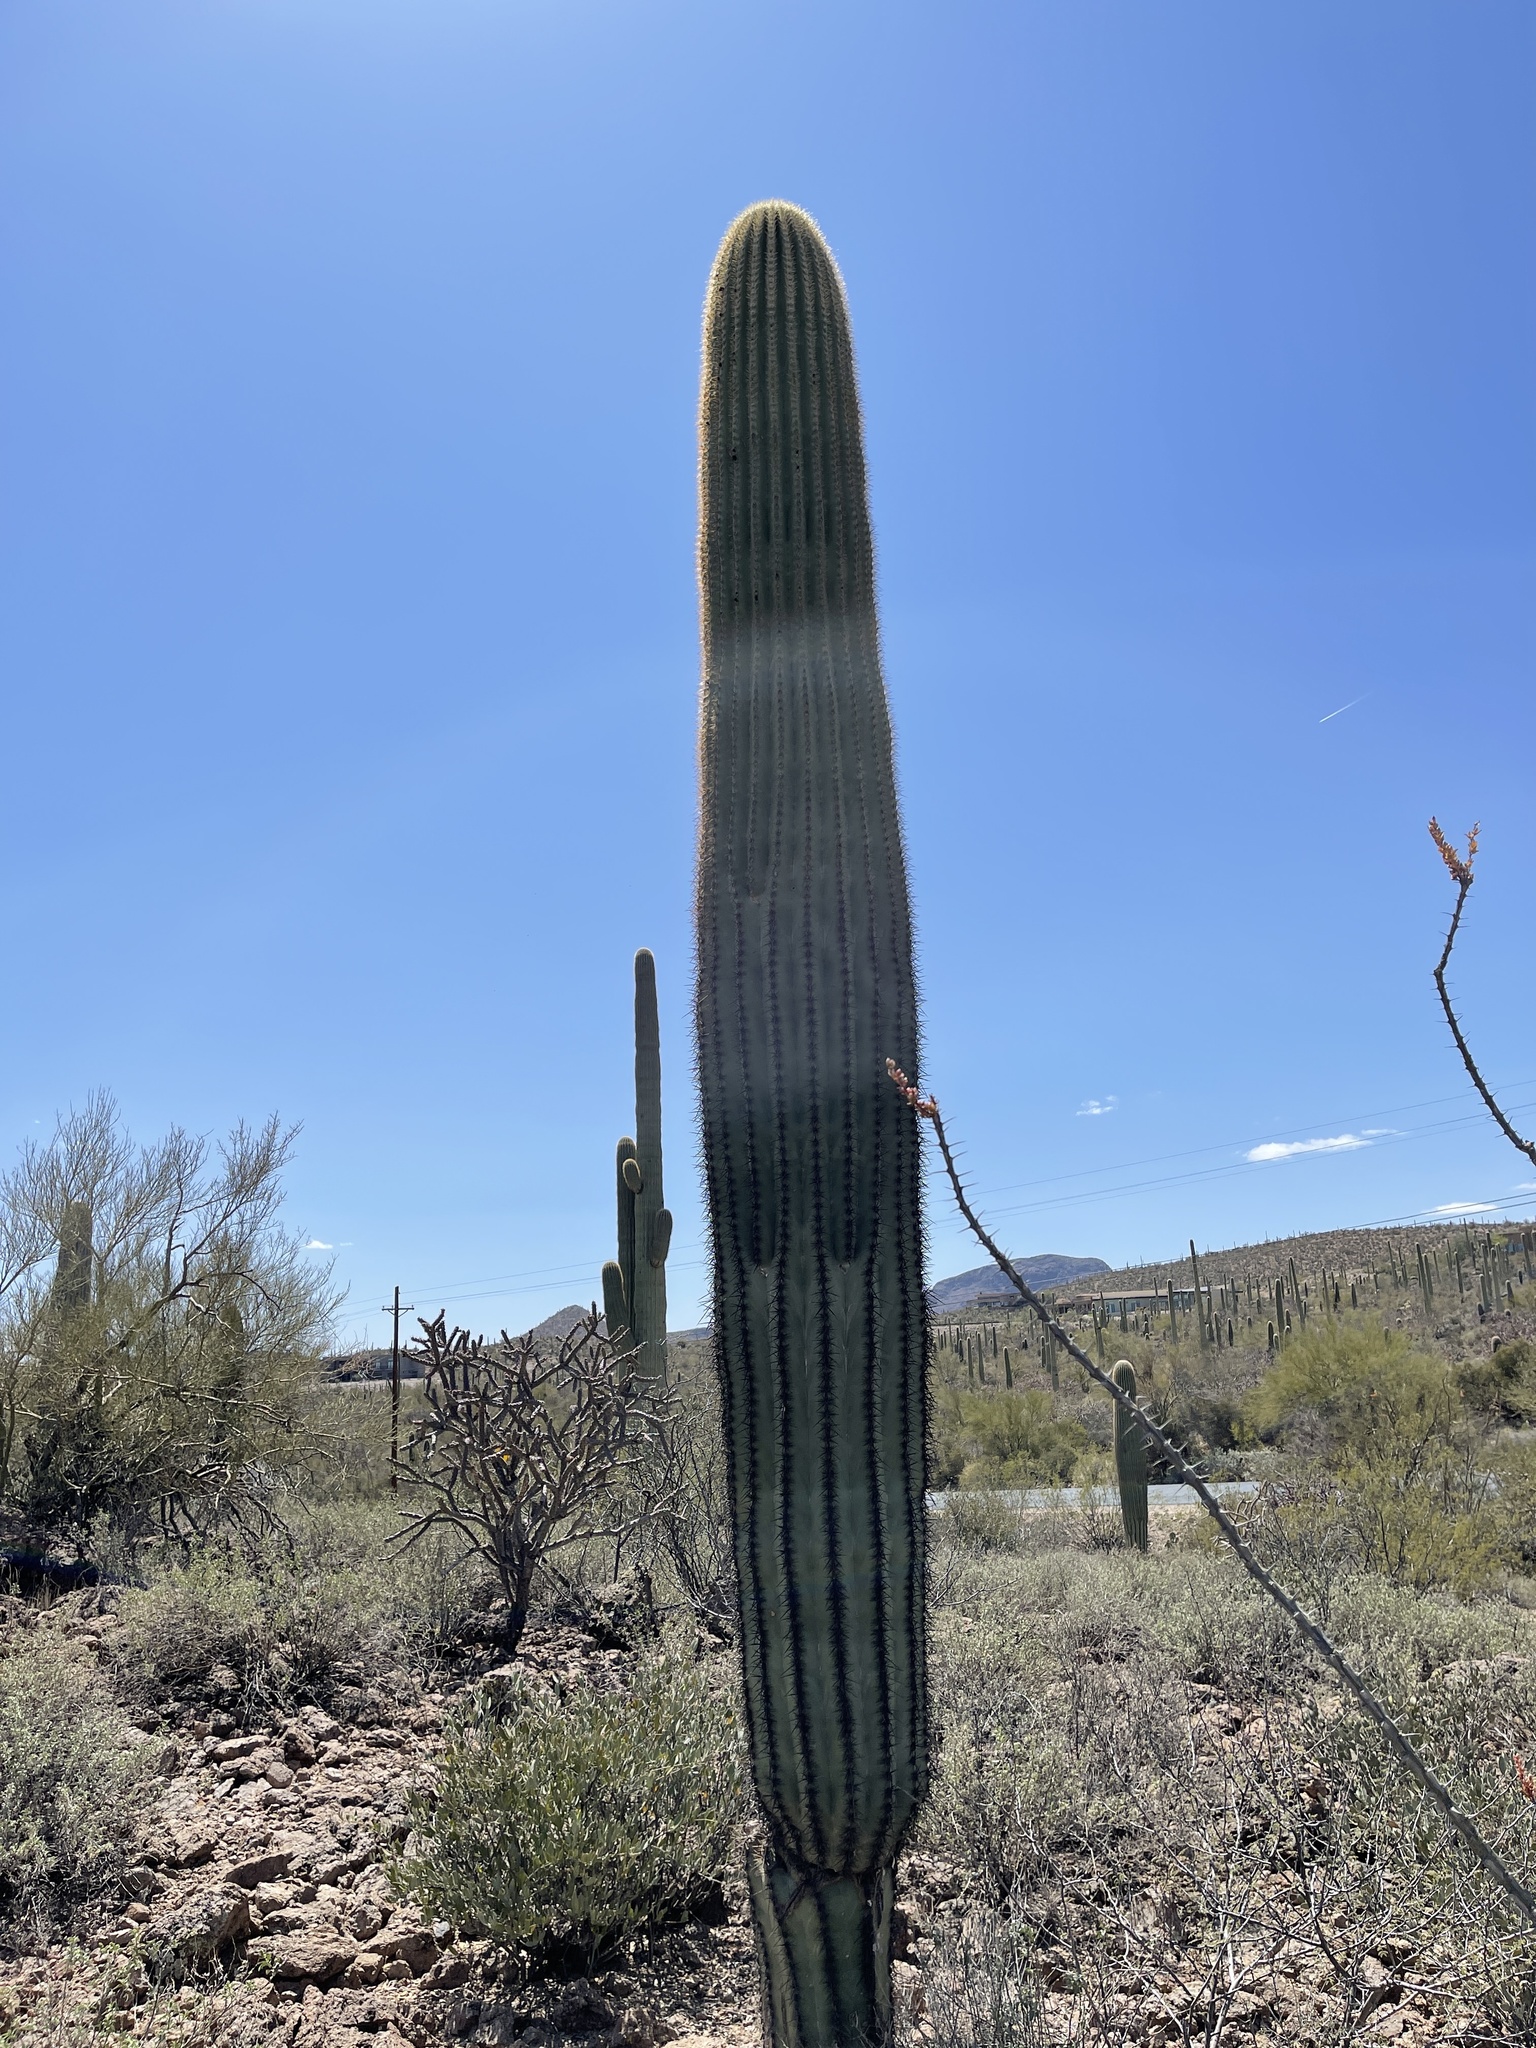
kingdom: Plantae
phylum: Tracheophyta
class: Magnoliopsida
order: Caryophyllales
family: Cactaceae
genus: Carnegiea
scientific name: Carnegiea gigantea
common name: Saguaro
